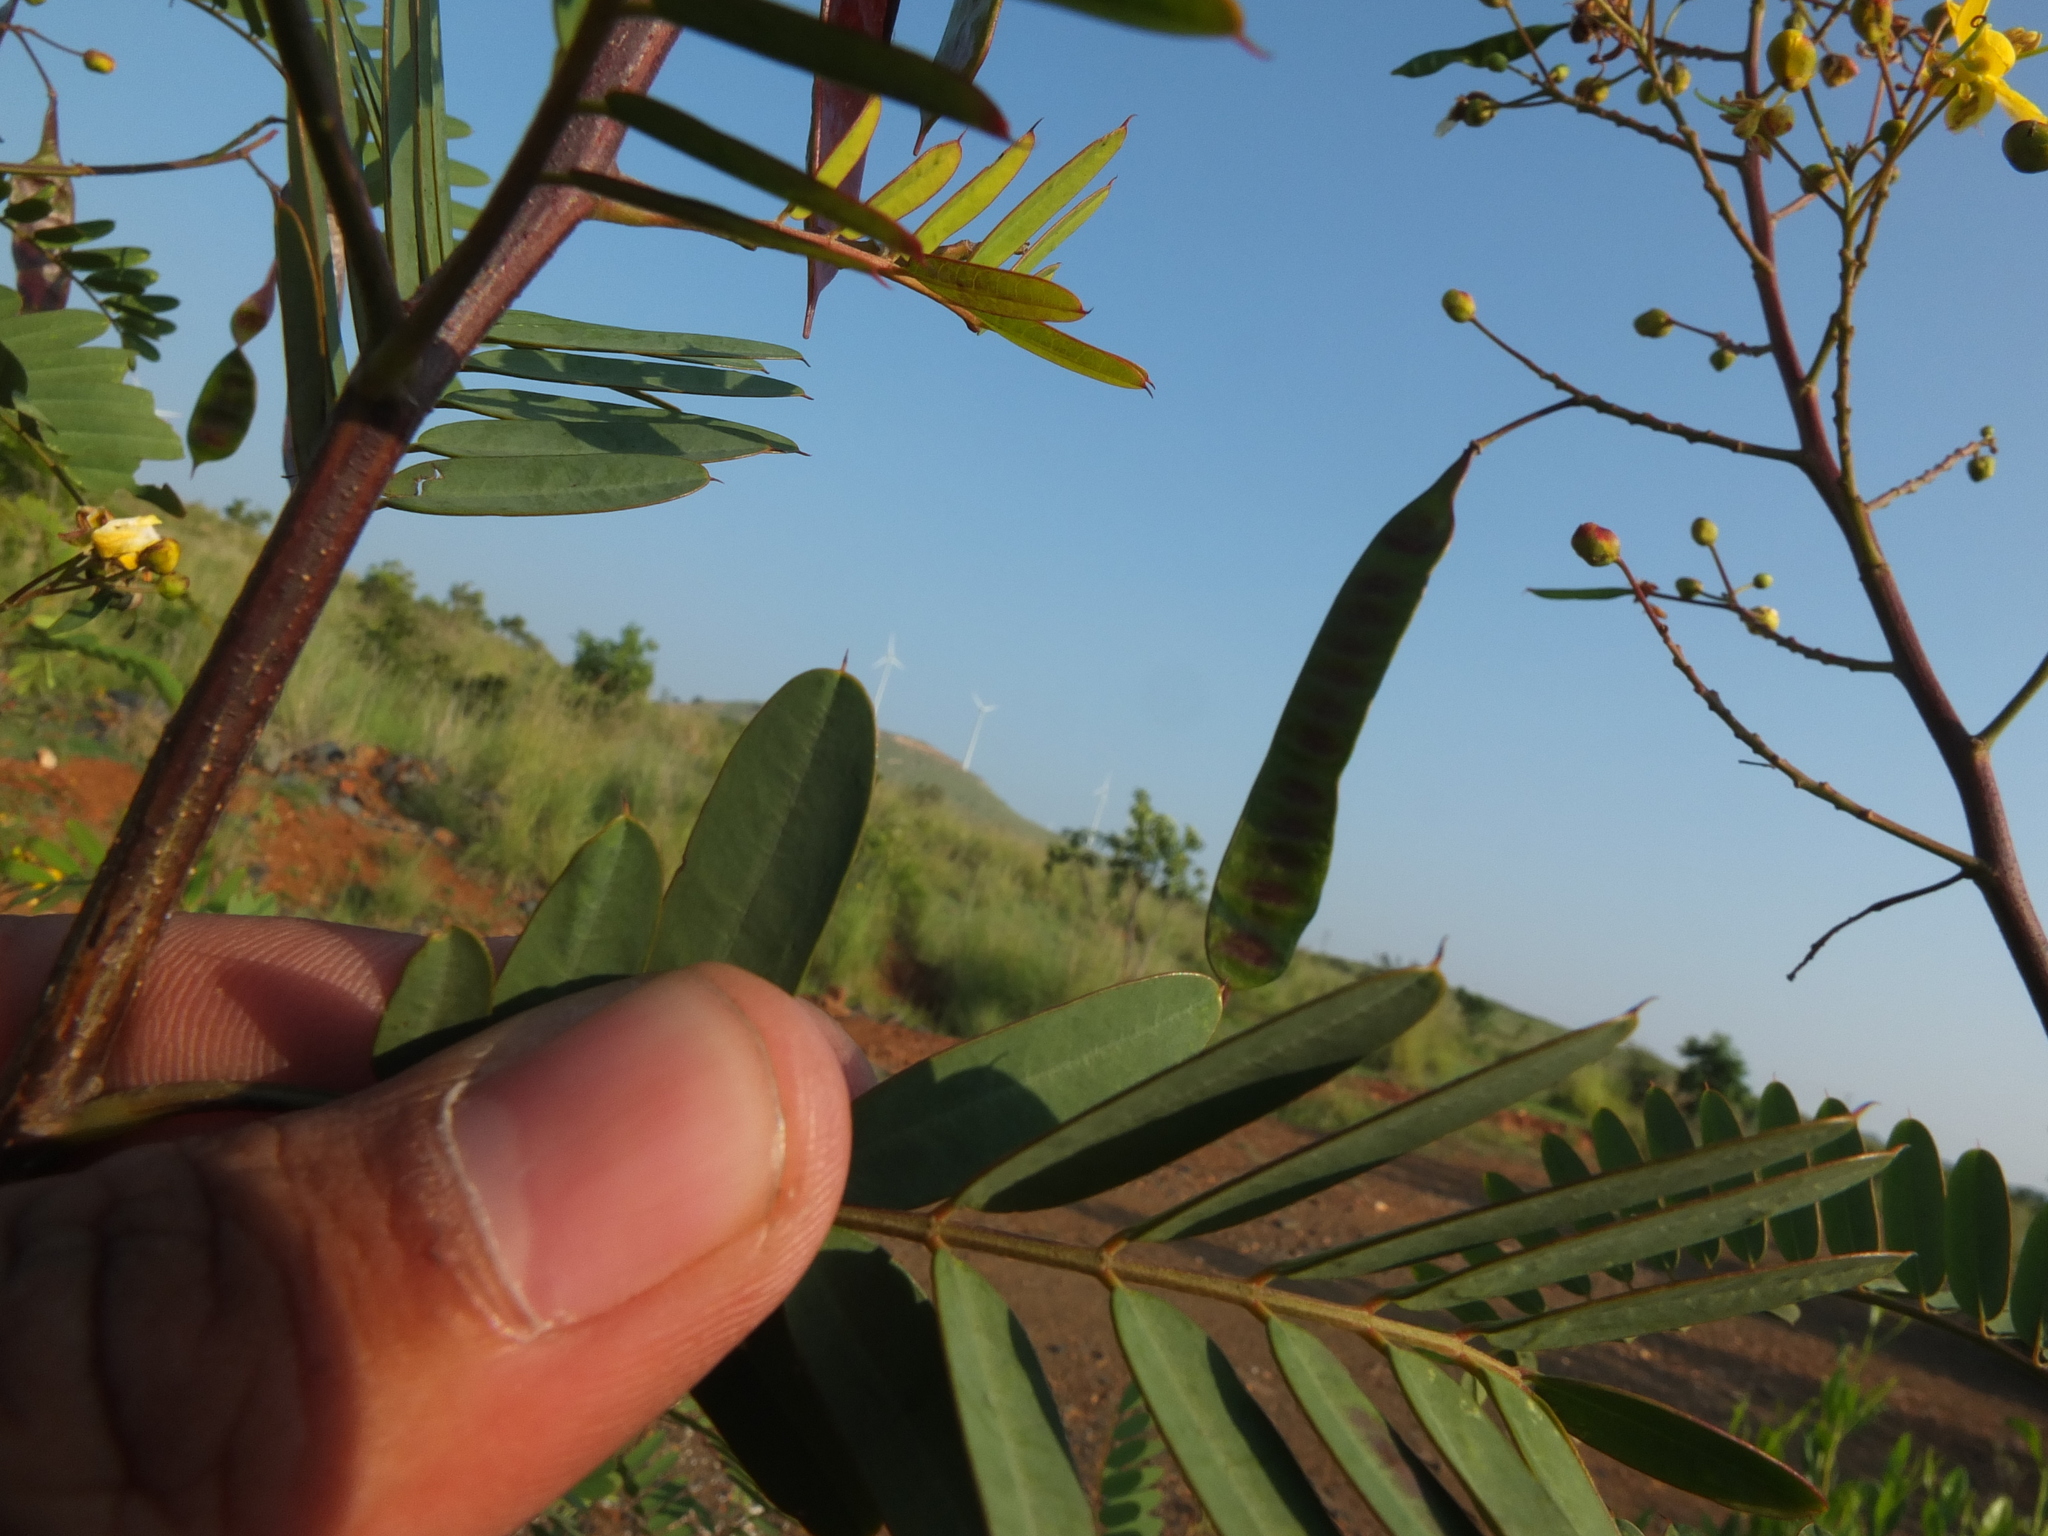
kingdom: Plantae
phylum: Tracheophyta
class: Magnoliopsida
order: Fabales
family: Fabaceae
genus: Senna
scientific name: Senna montana
